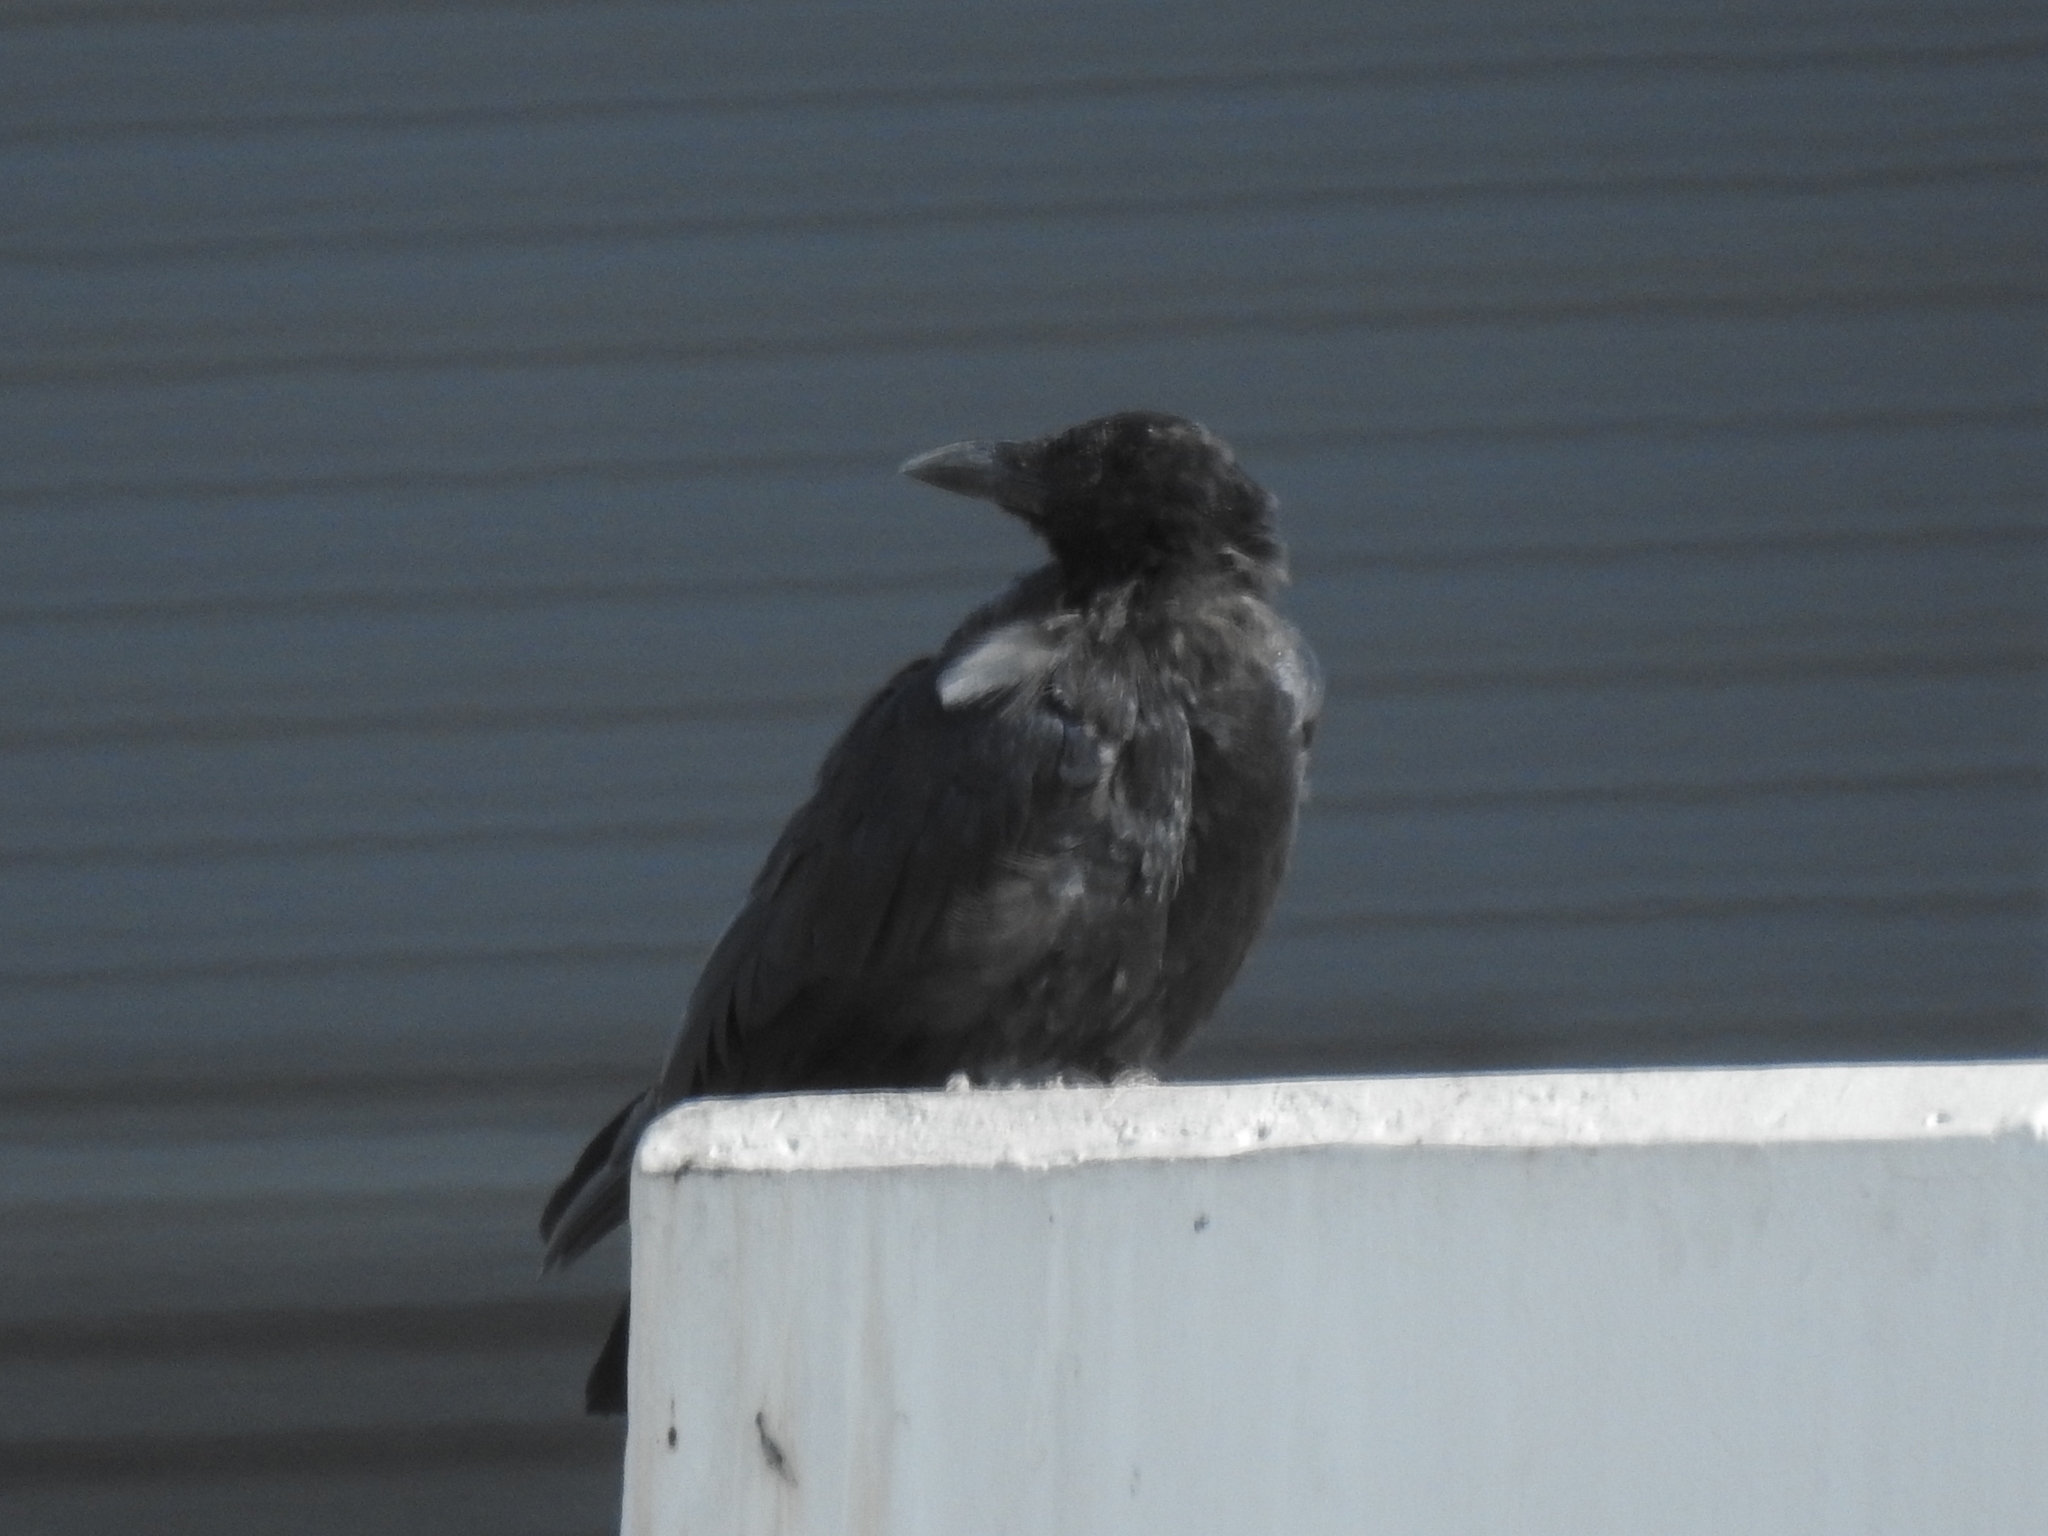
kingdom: Animalia
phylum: Chordata
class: Aves
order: Passeriformes
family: Corvidae
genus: Corvus
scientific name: Corvus brachyrhynchos
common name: American crow
